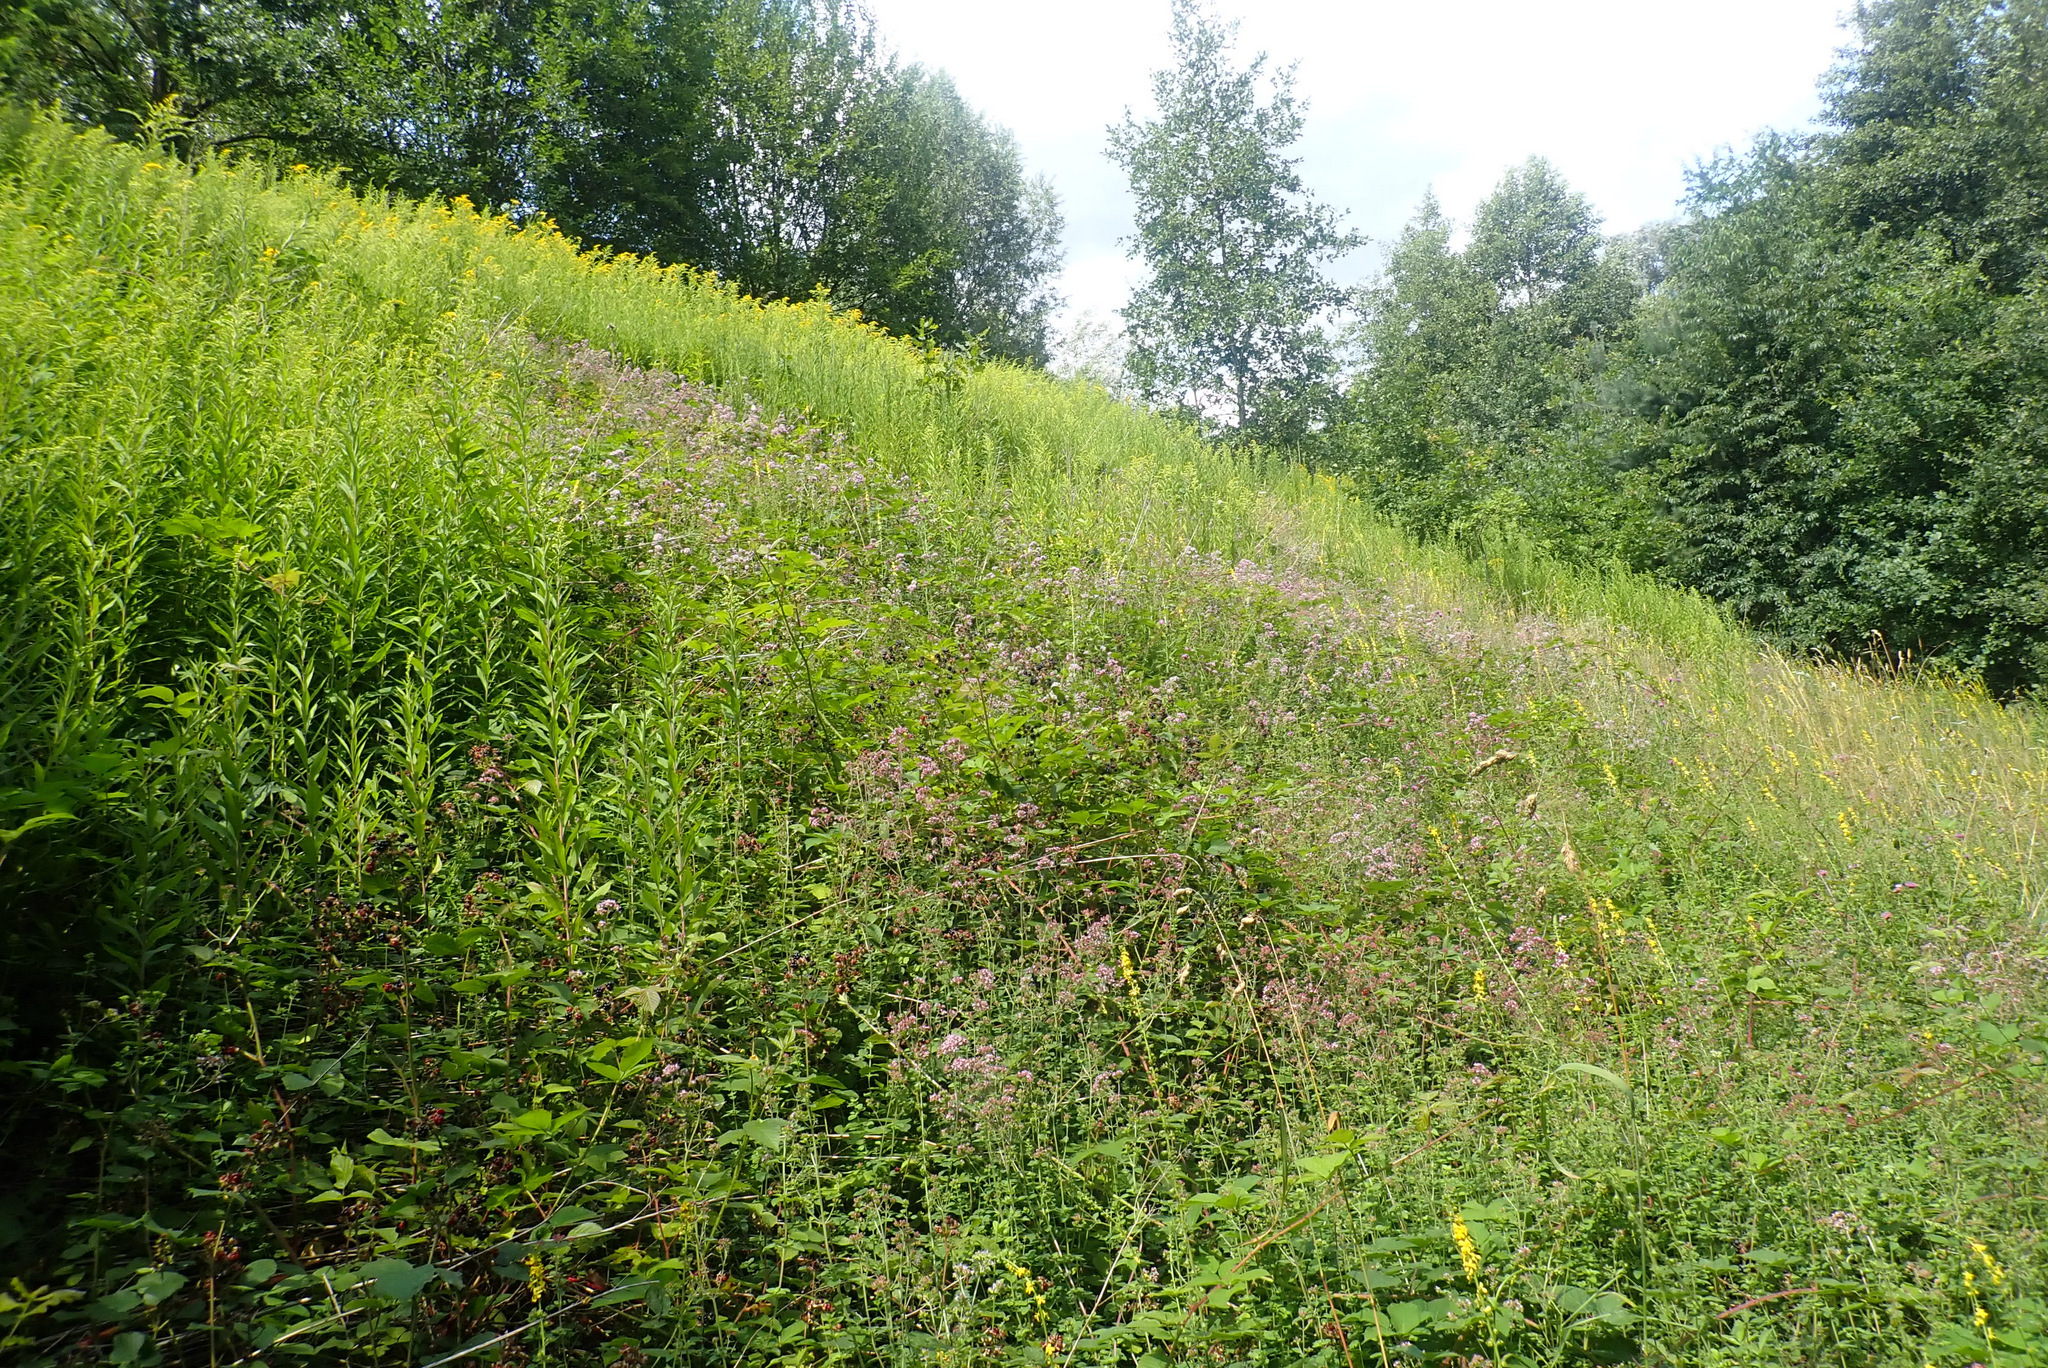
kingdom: Plantae
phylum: Tracheophyta
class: Magnoliopsida
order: Lamiales
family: Lamiaceae
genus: Origanum
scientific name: Origanum vulgare
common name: Wild marjoram
